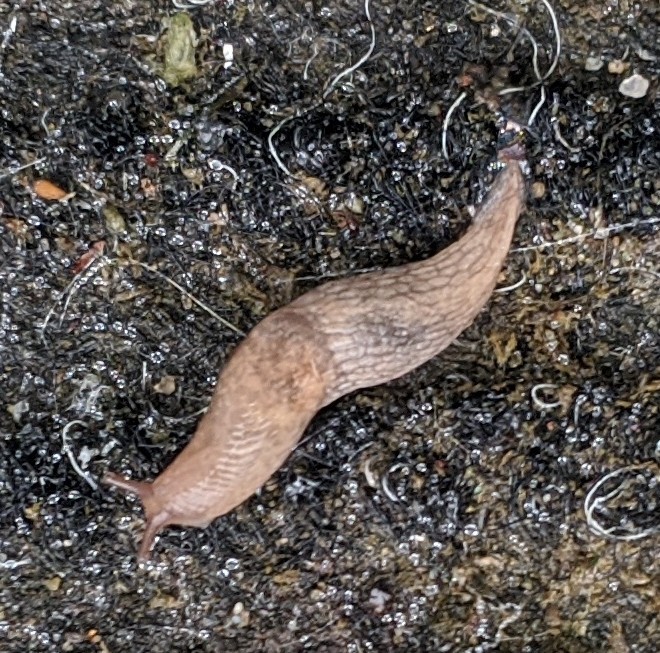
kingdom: Animalia
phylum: Mollusca
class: Gastropoda
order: Stylommatophora
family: Agriolimacidae
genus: Deroceras
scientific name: Deroceras reticulatum
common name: Gray field slug
